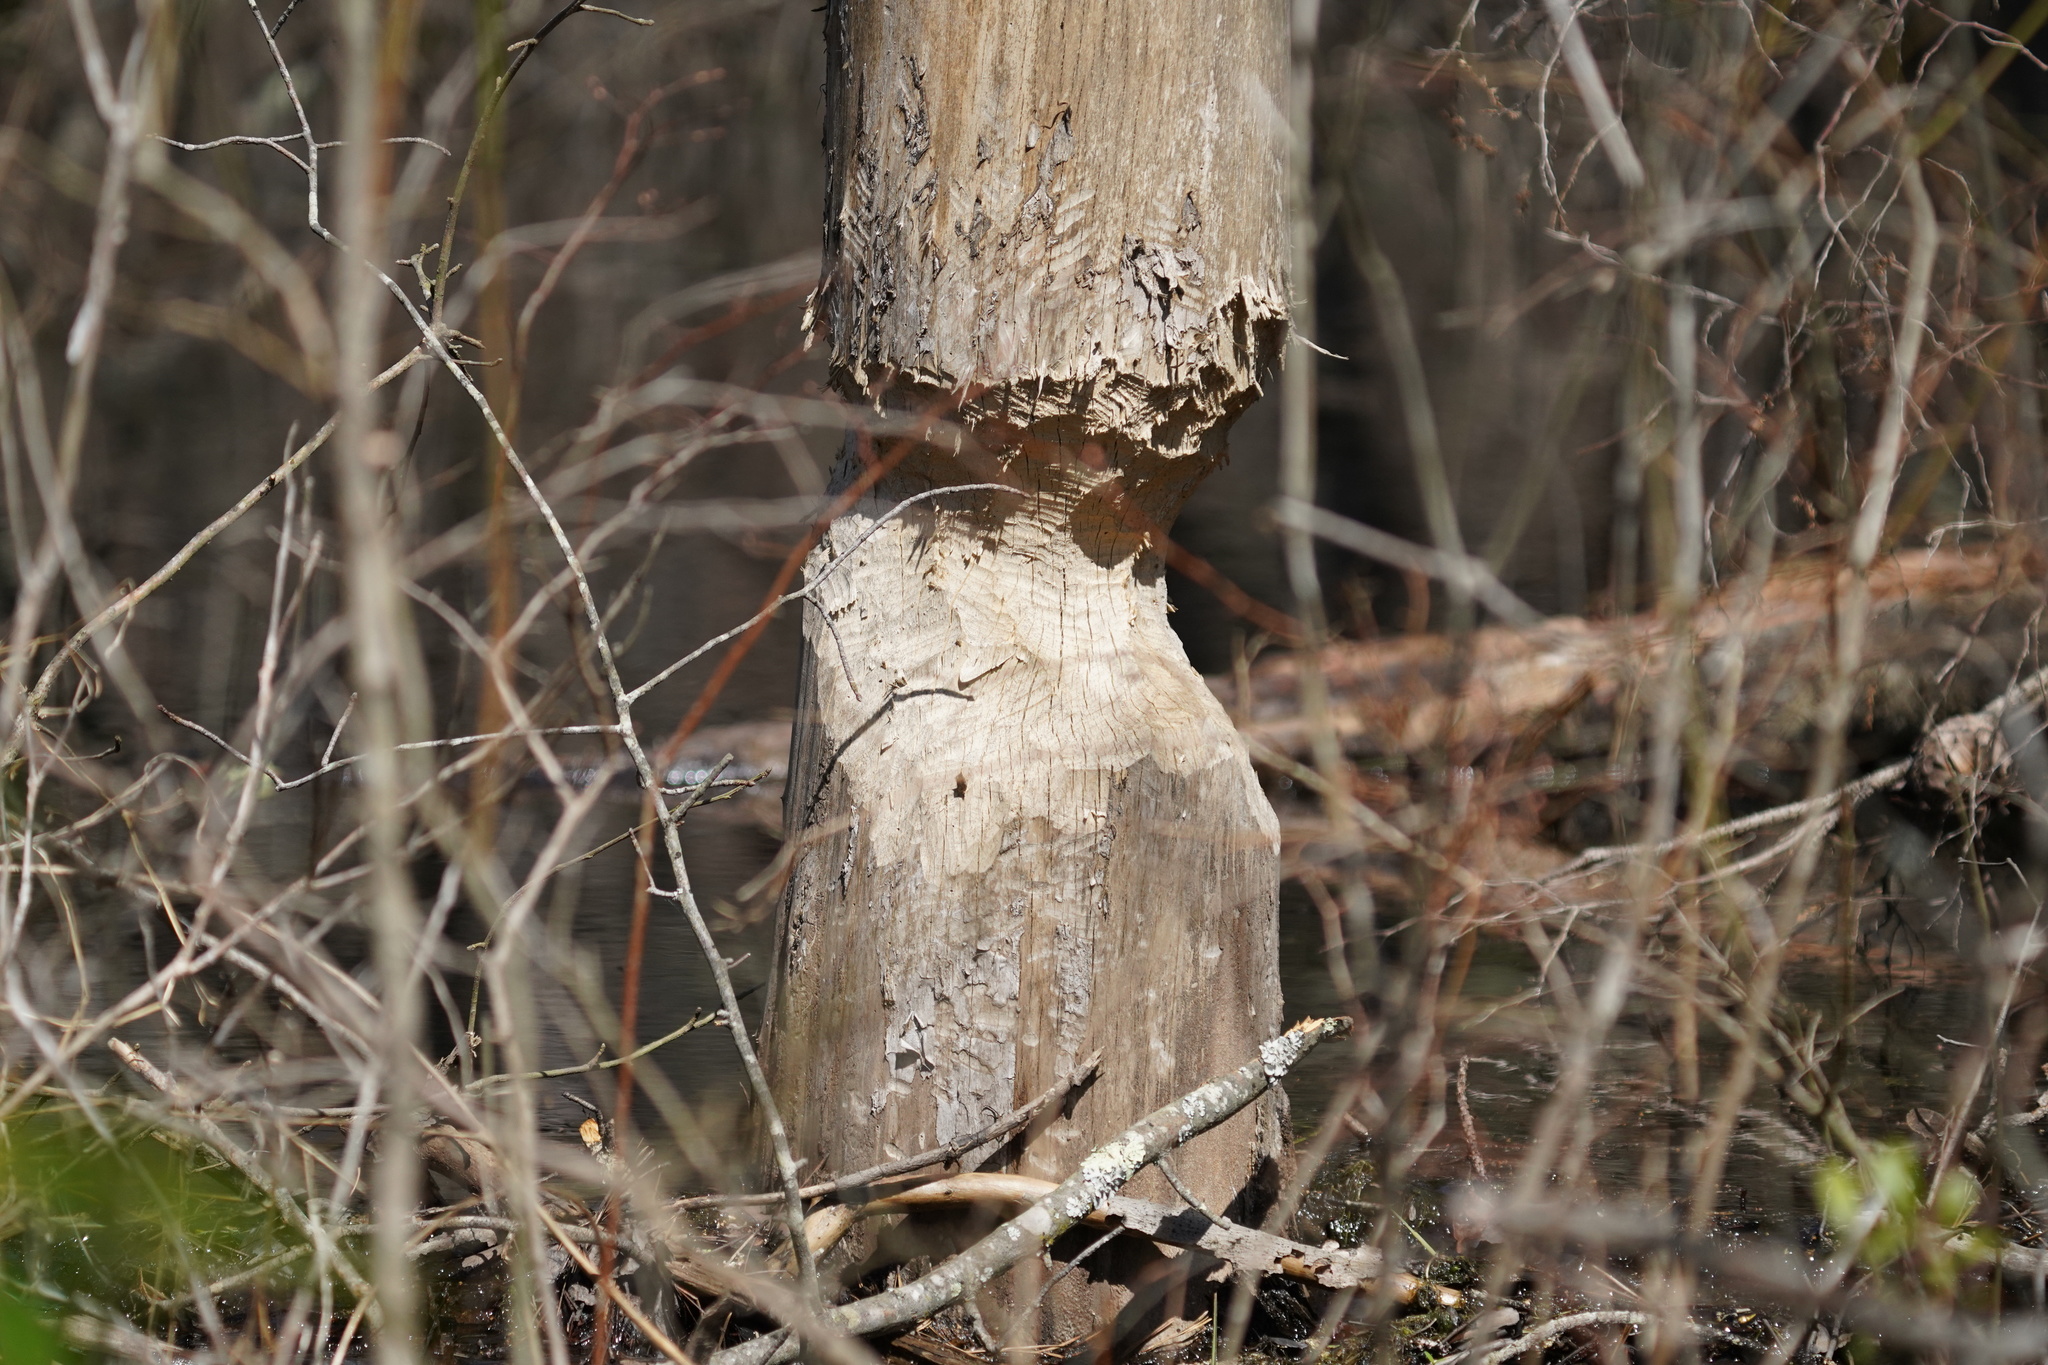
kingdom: Animalia
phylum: Chordata
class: Mammalia
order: Rodentia
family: Castoridae
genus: Castor
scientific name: Castor canadensis
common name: American beaver
